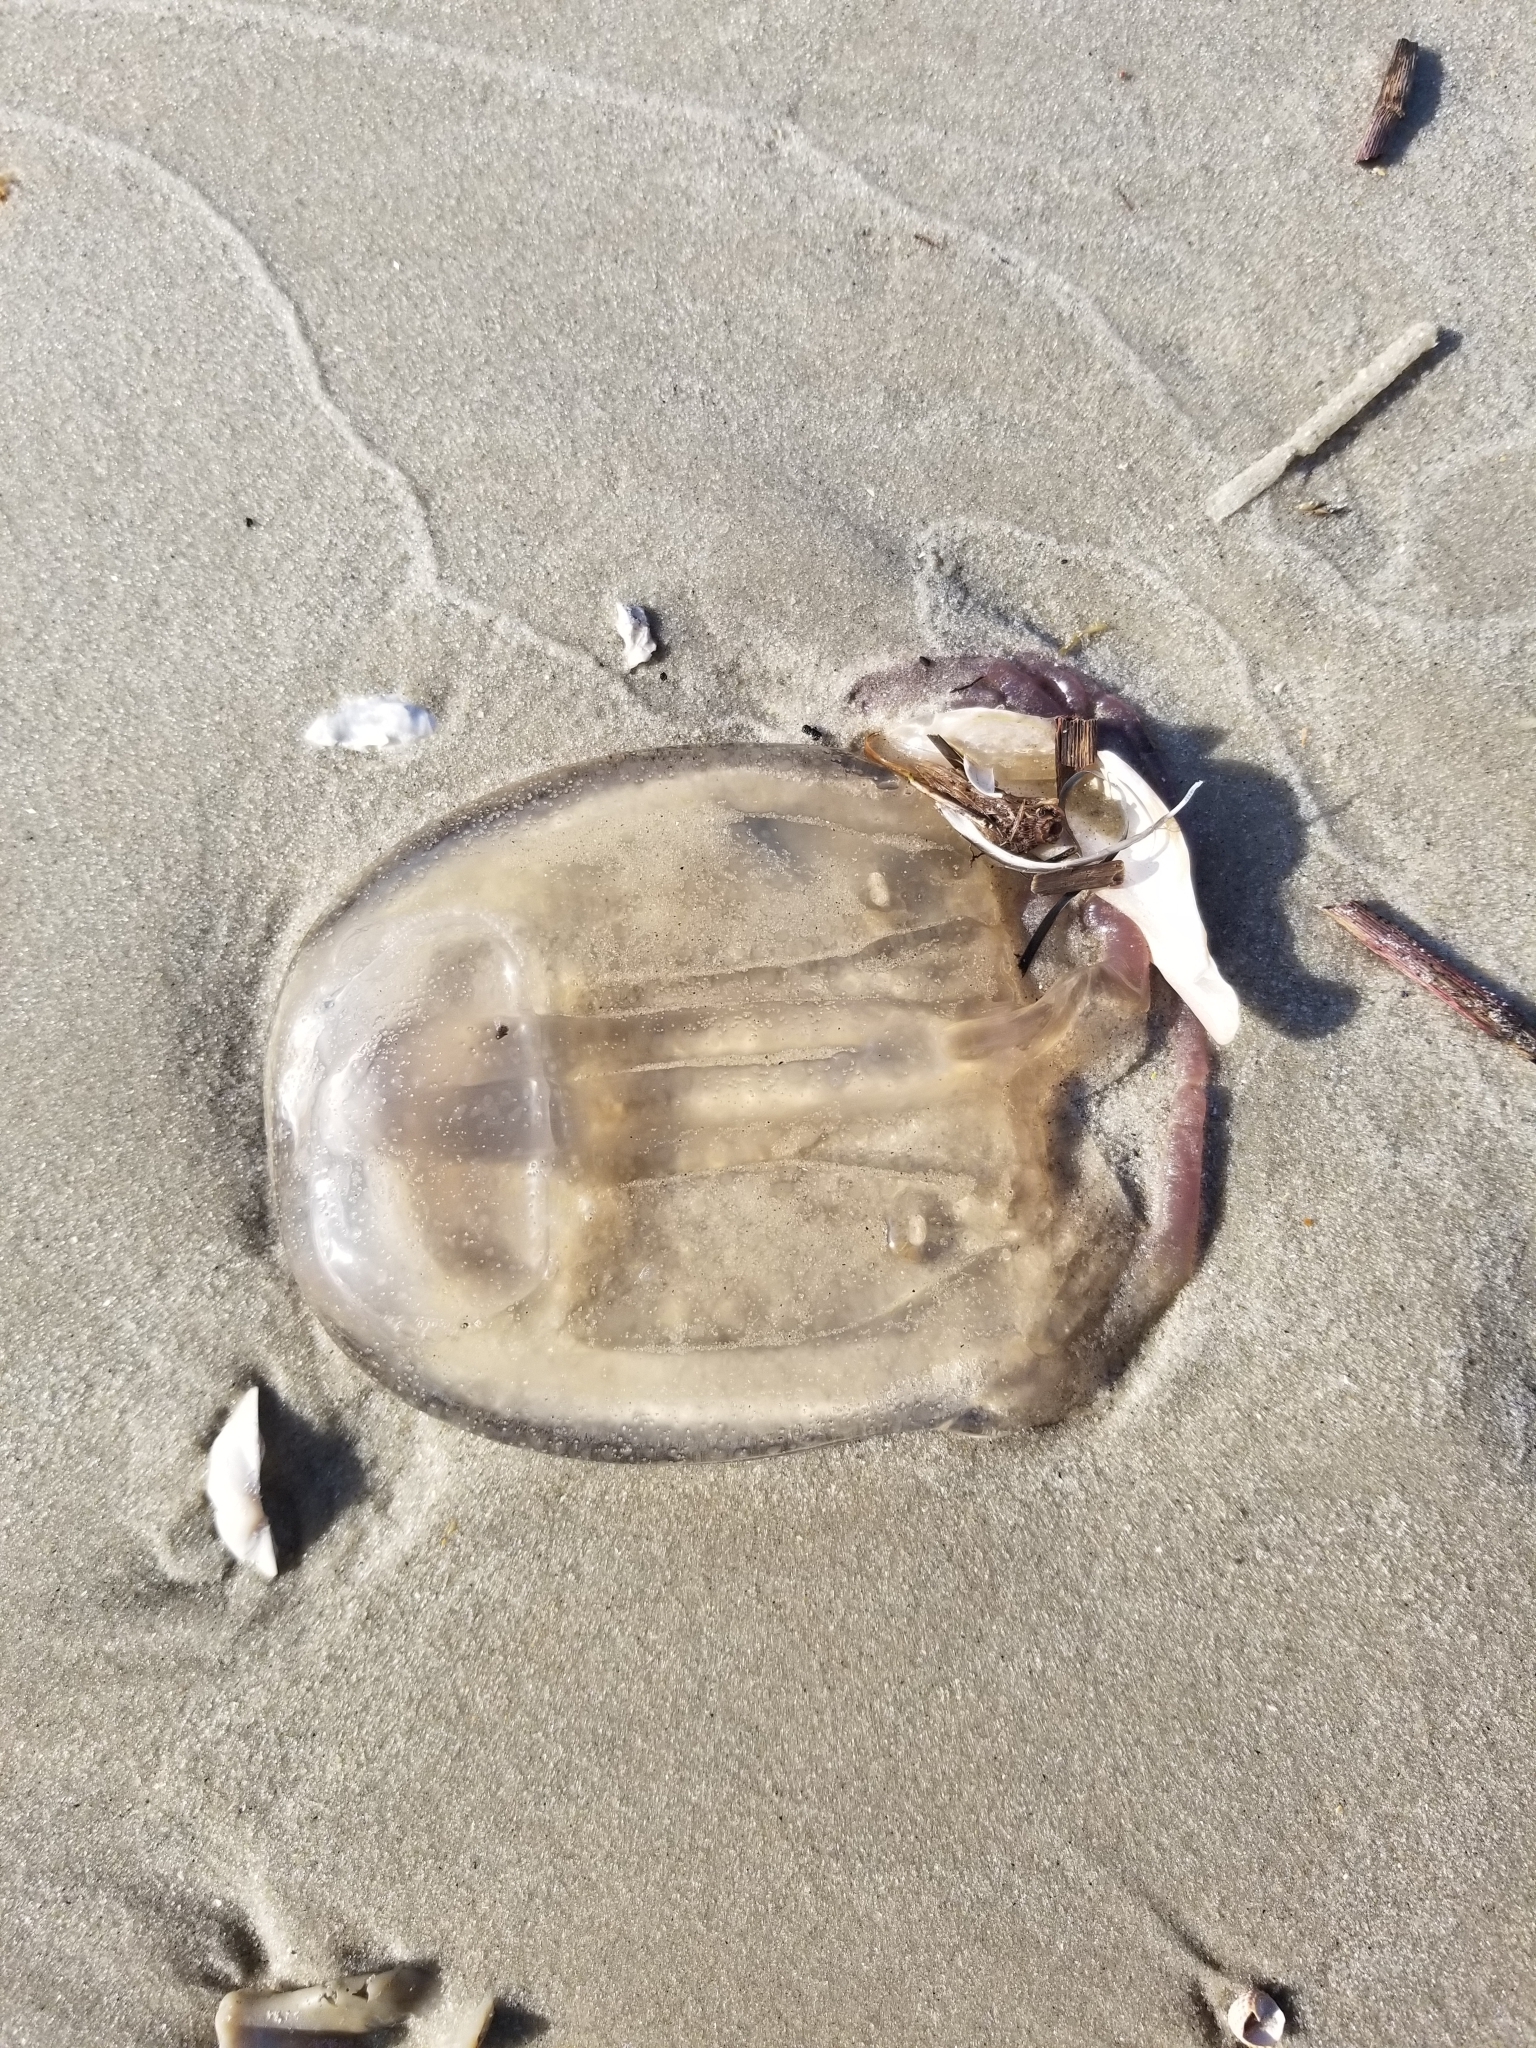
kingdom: Animalia
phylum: Cnidaria
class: Cubozoa
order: Carybdeida
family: Tamoyidae
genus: Tamoya
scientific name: Tamoya haplonema
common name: Box jelly
